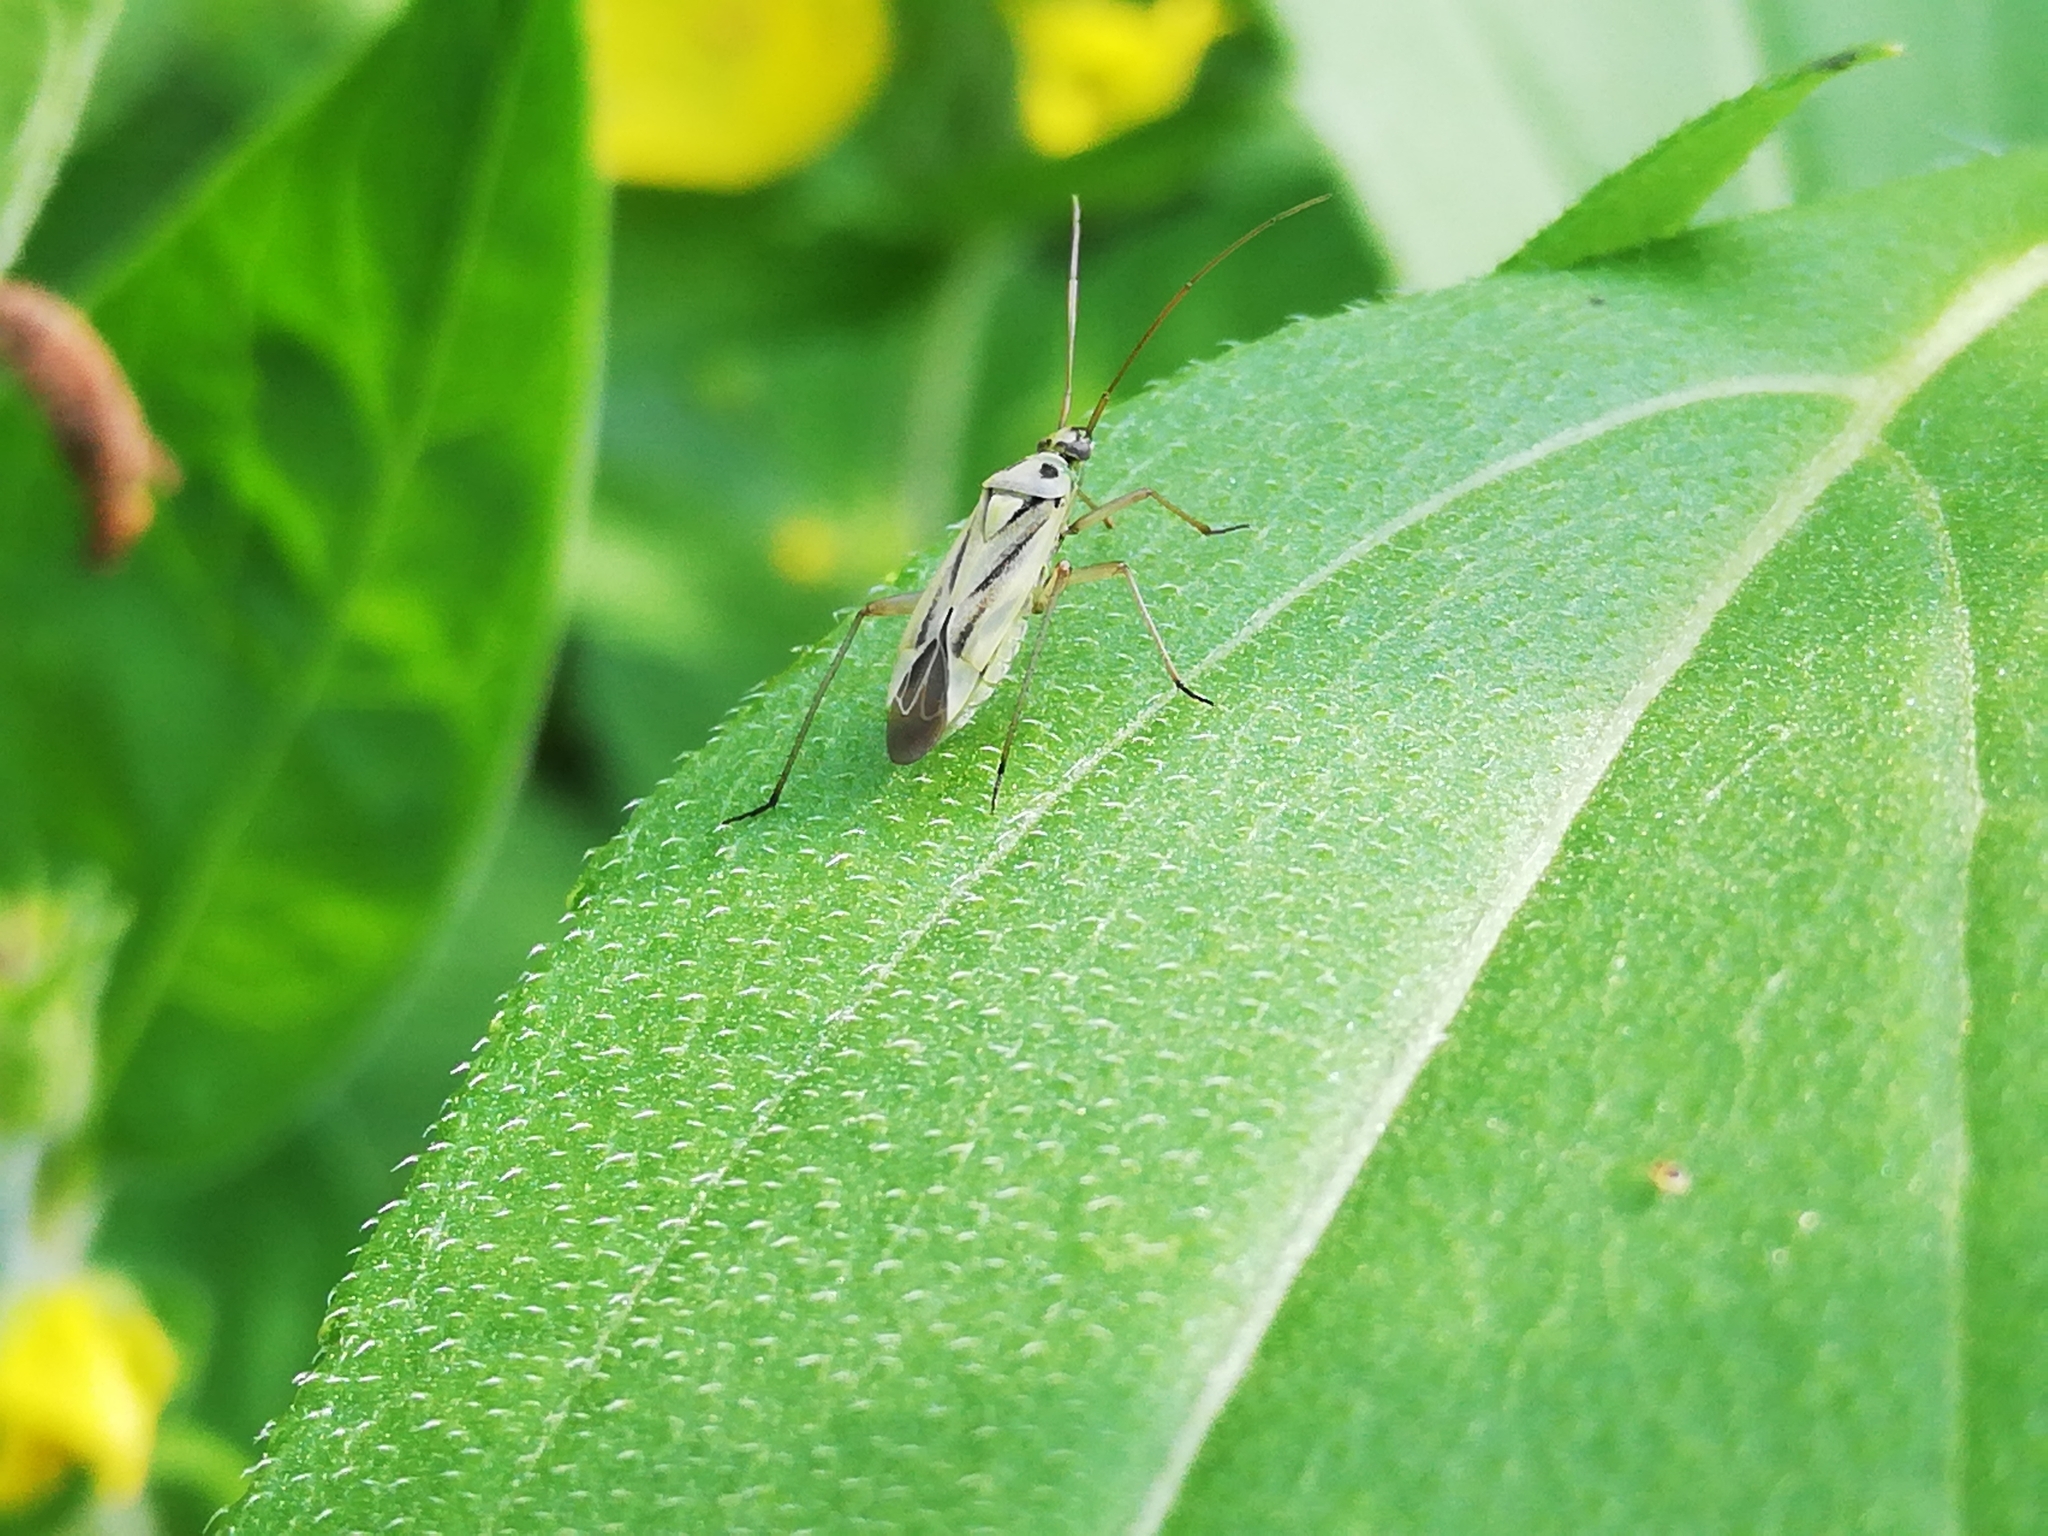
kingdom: Animalia
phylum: Arthropoda
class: Insecta
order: Hemiptera
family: Miridae
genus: Stenotus
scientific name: Stenotus binotatus
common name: Plant bug
